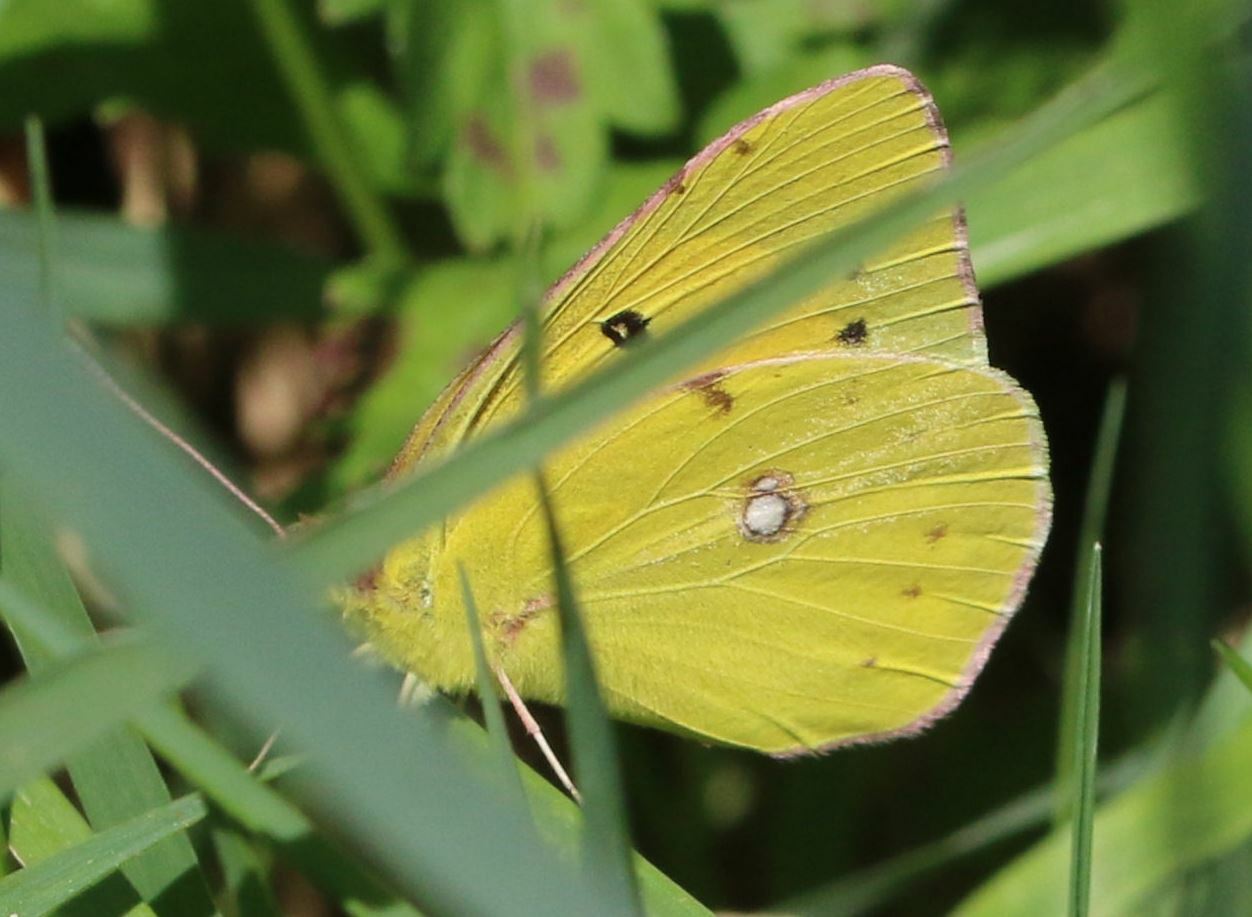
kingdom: Animalia
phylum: Arthropoda
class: Insecta
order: Lepidoptera
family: Pieridae
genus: Colias
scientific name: Colias croceus
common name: Clouded yellow
